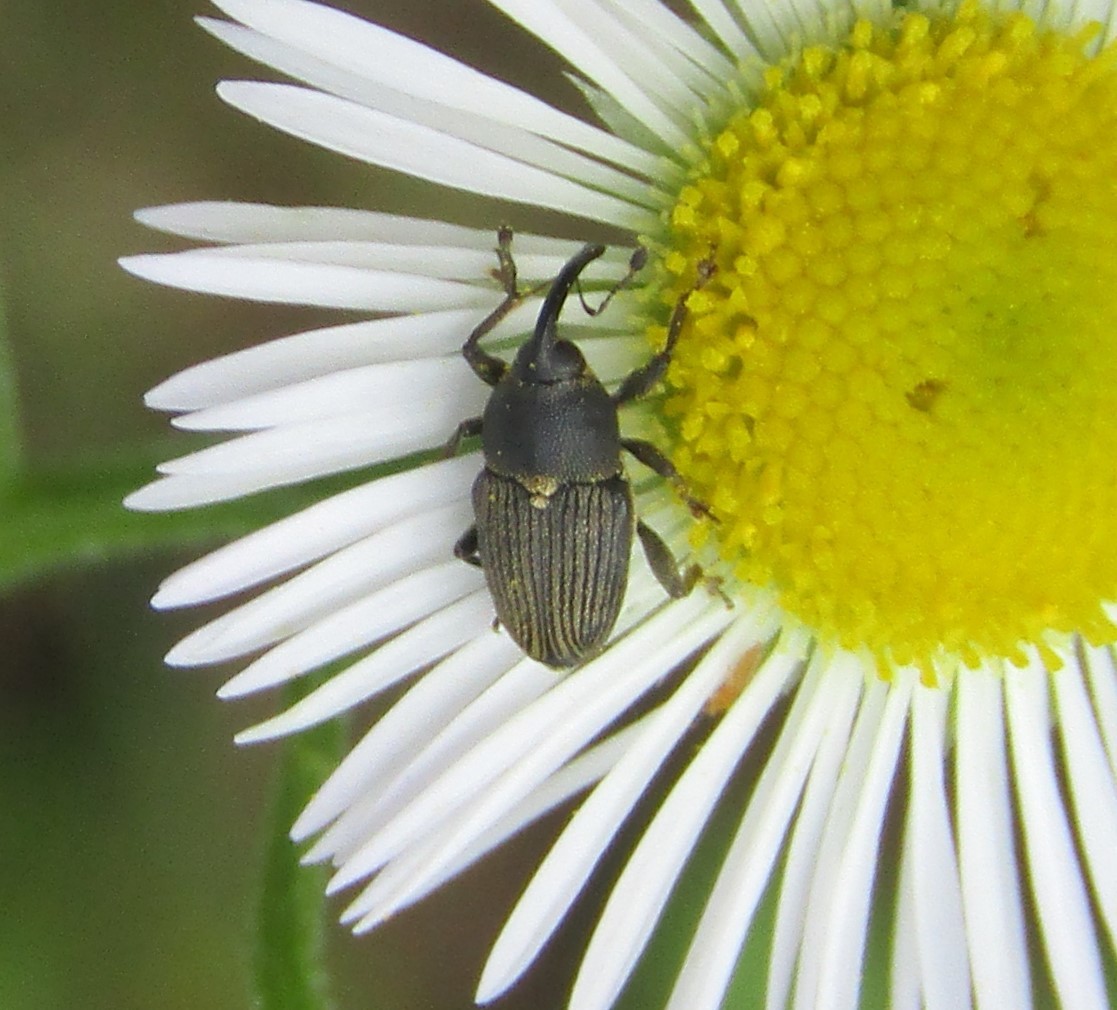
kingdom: Animalia
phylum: Arthropoda
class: Insecta
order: Coleoptera
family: Curculionidae
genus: Odontocorynus
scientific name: Odontocorynus salebrosus
